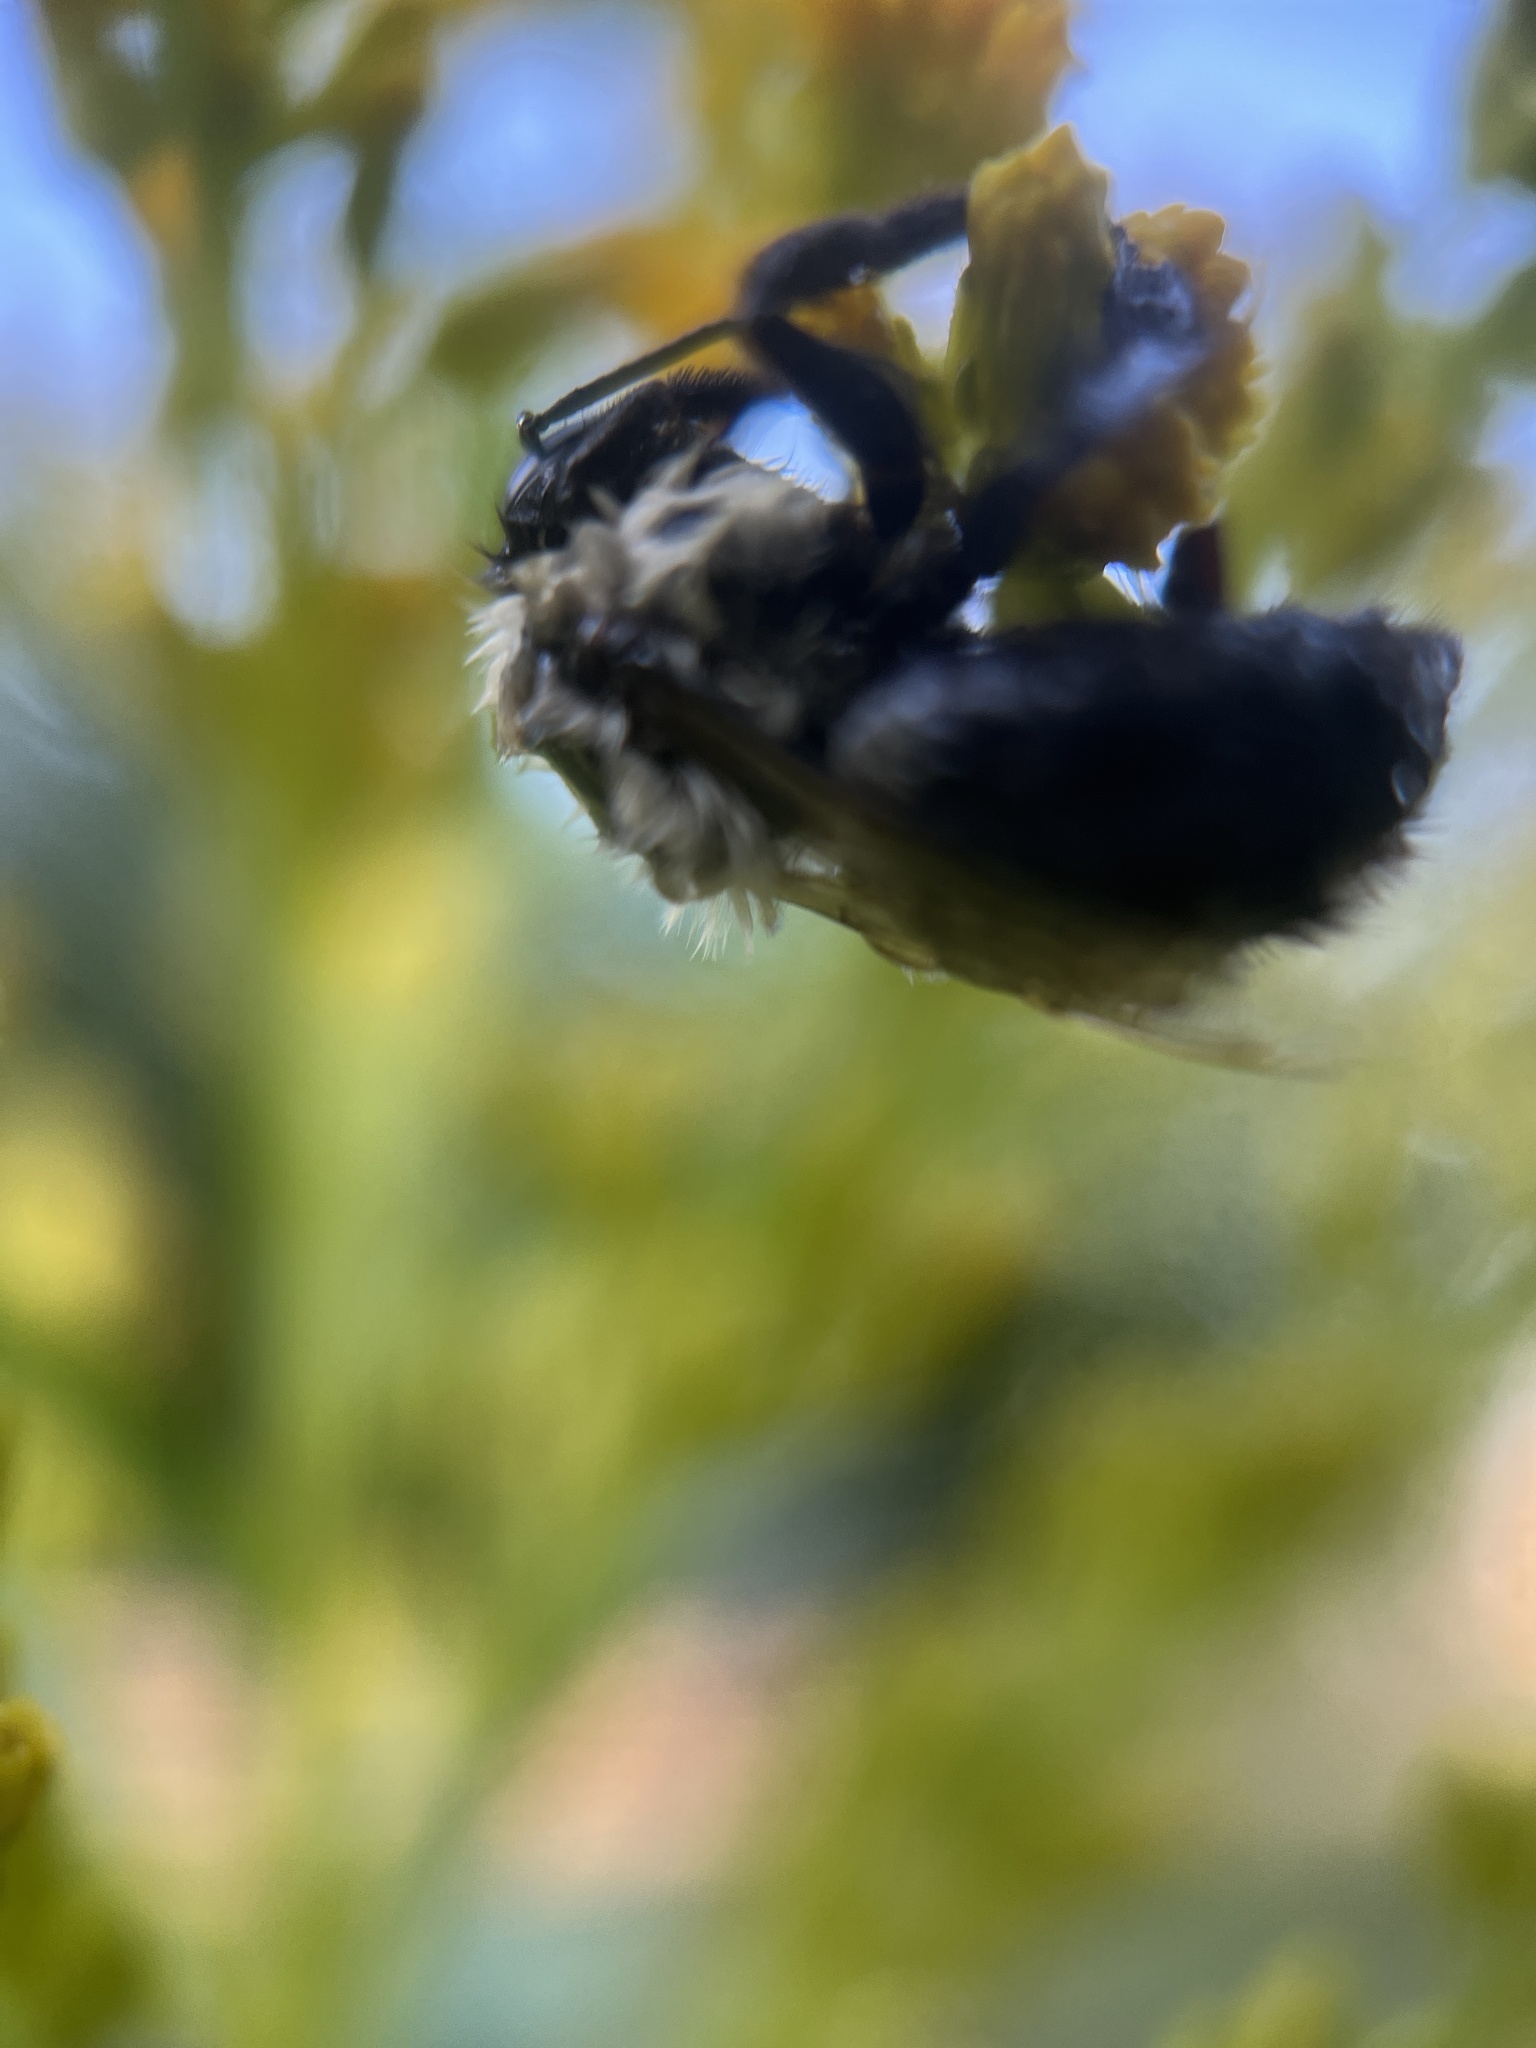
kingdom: Animalia
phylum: Arthropoda
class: Insecta
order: Hymenoptera
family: Apidae
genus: Bombus
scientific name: Bombus impatiens
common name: Common eastern bumble bee
